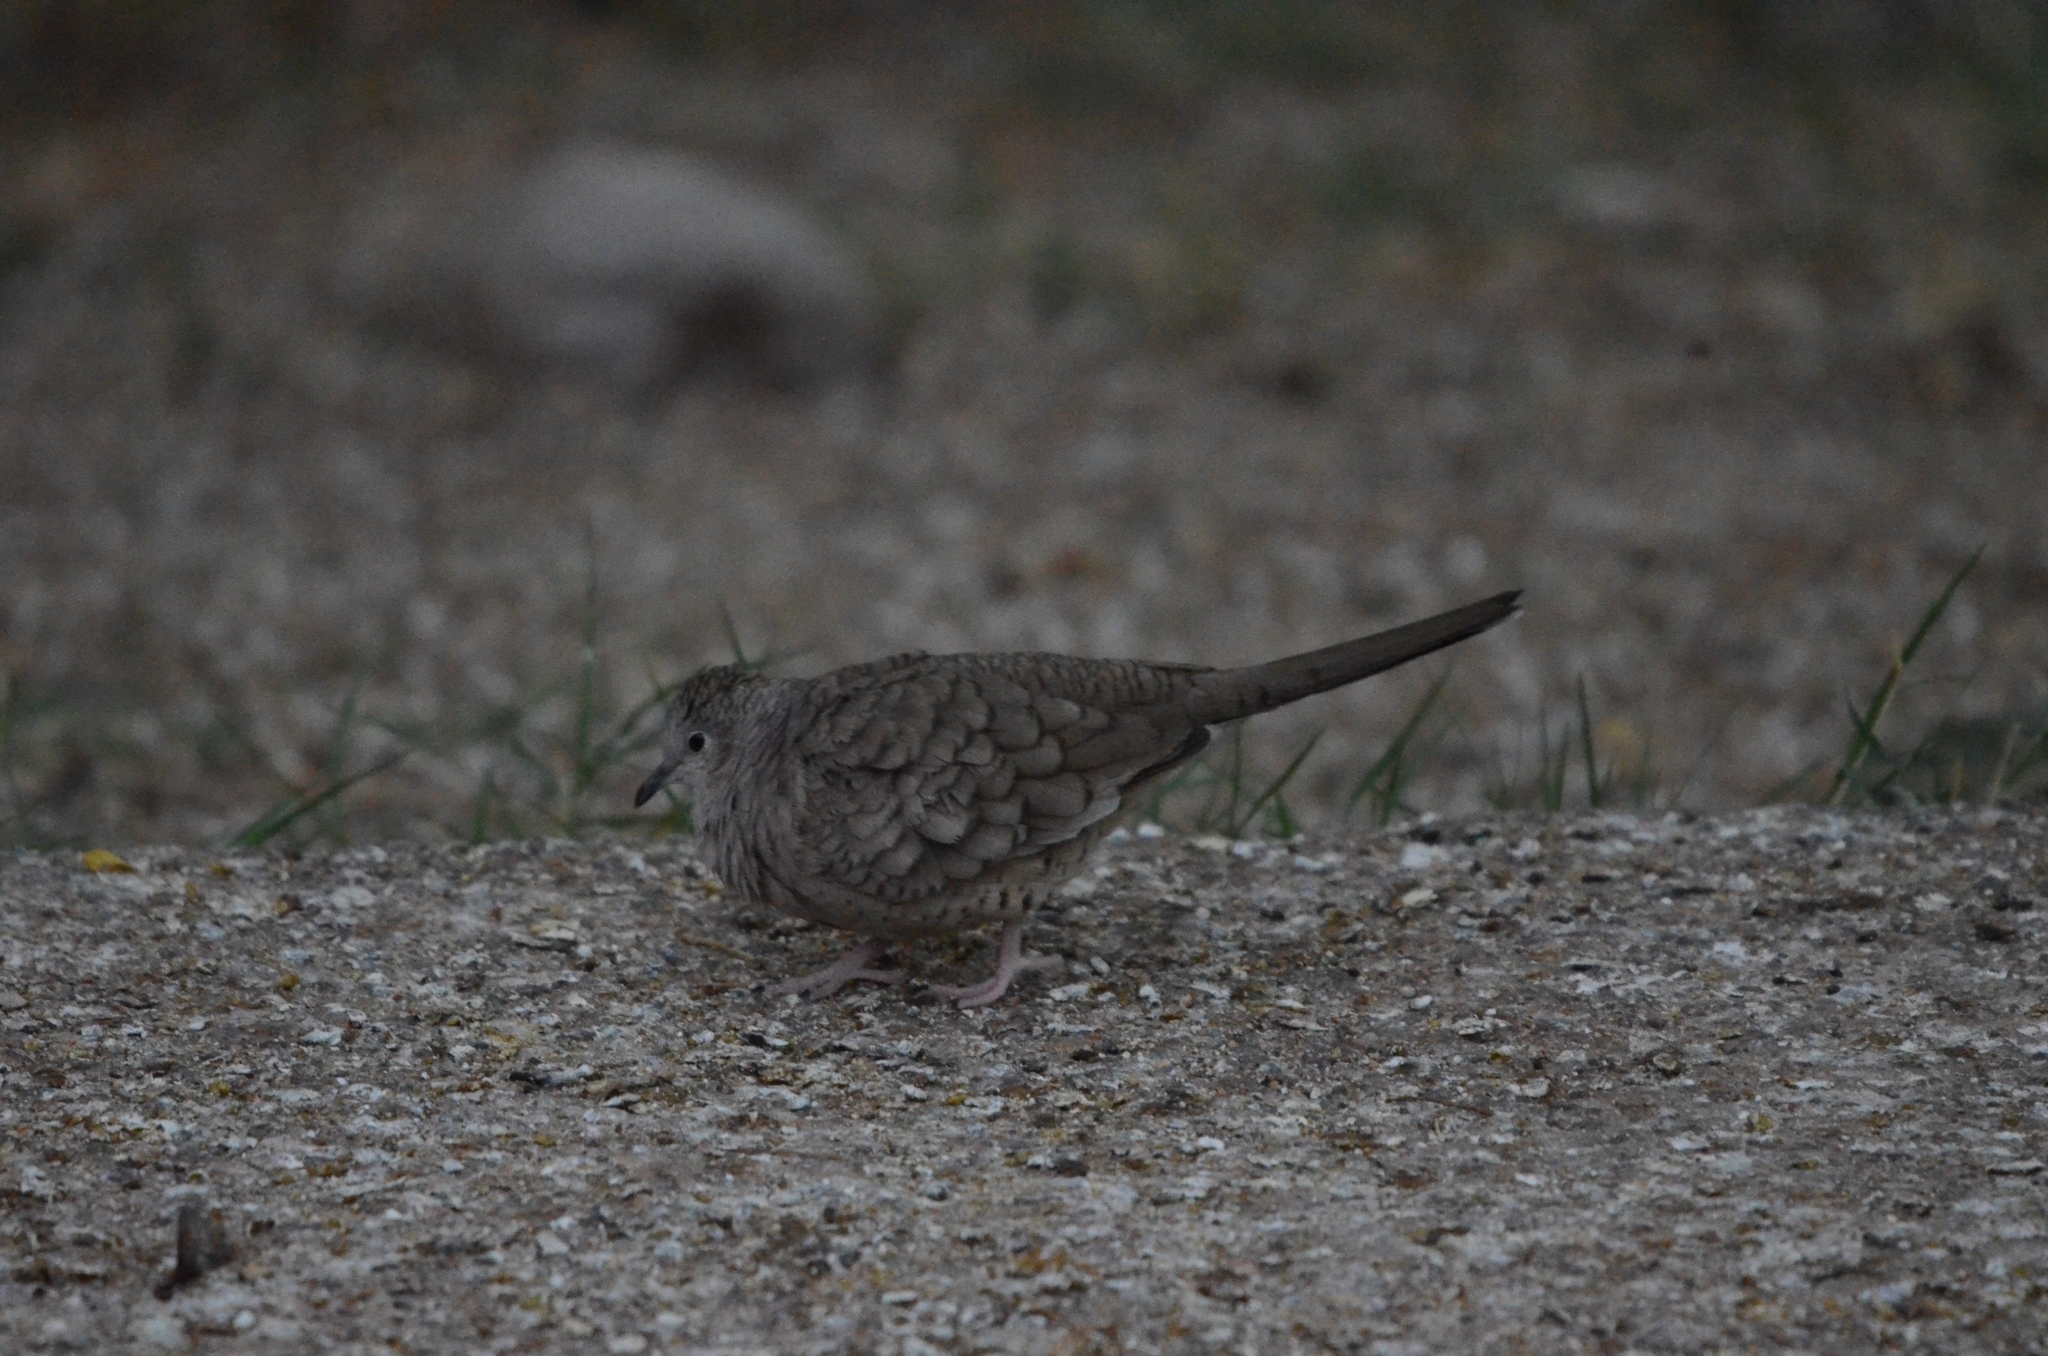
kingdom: Animalia
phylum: Chordata
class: Aves
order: Columbiformes
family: Columbidae
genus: Columbina
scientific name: Columbina inca
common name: Inca dove
